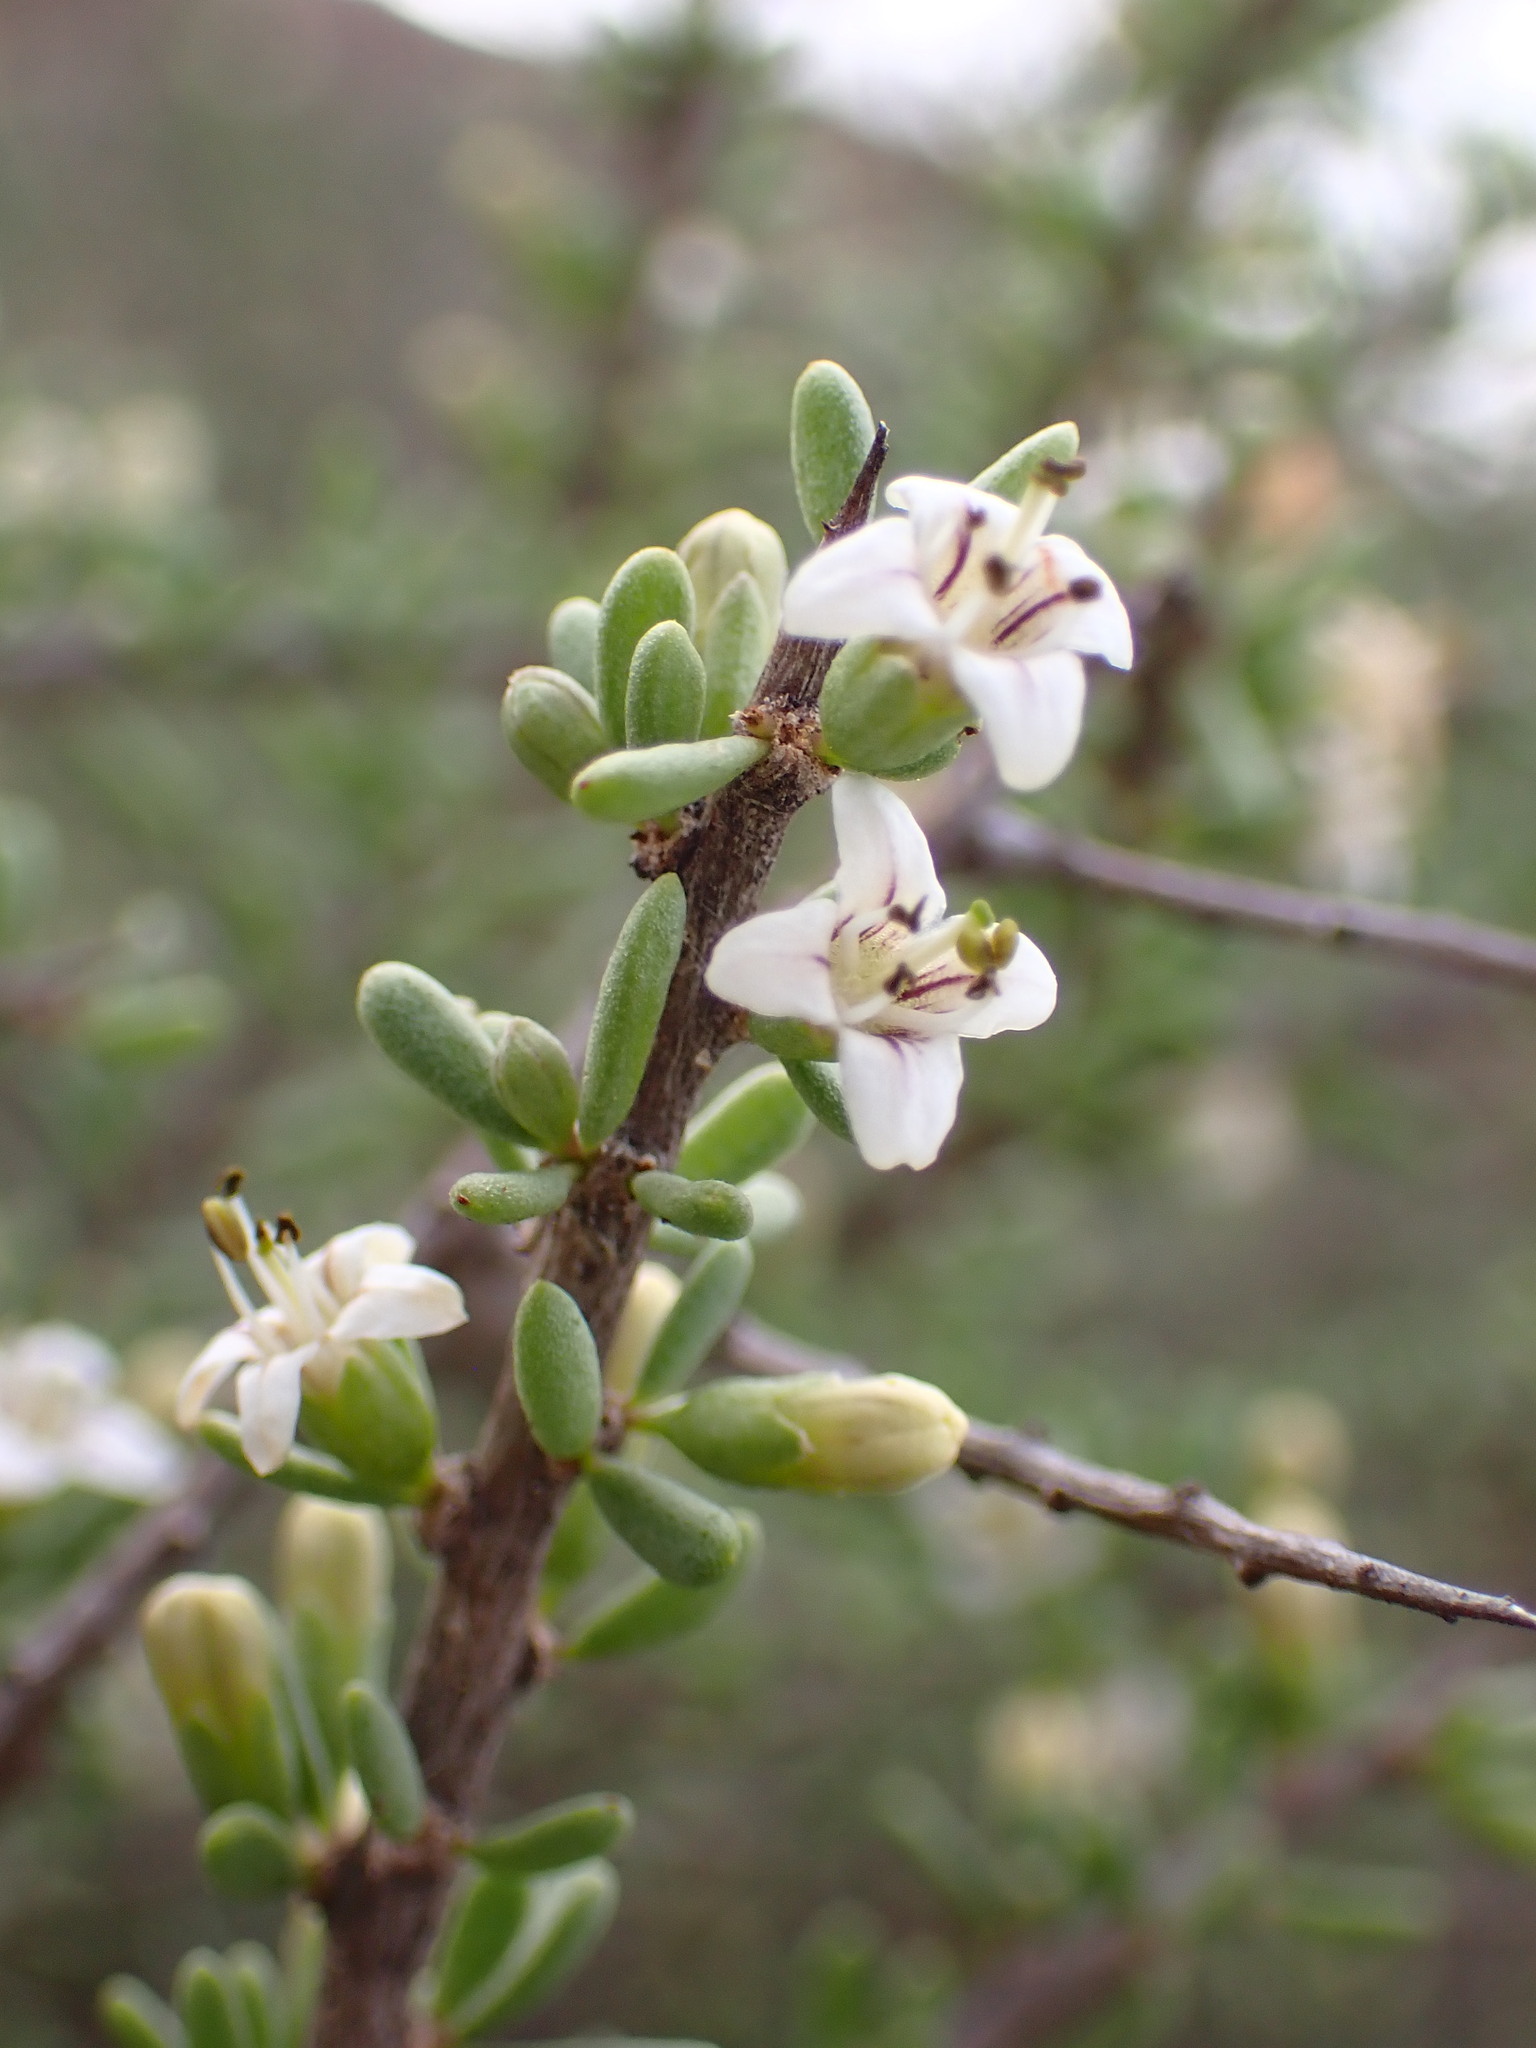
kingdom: Plantae
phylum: Tracheophyta
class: Magnoliopsida
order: Solanales
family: Solanaceae
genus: Lycium
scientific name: Lycium californicum
